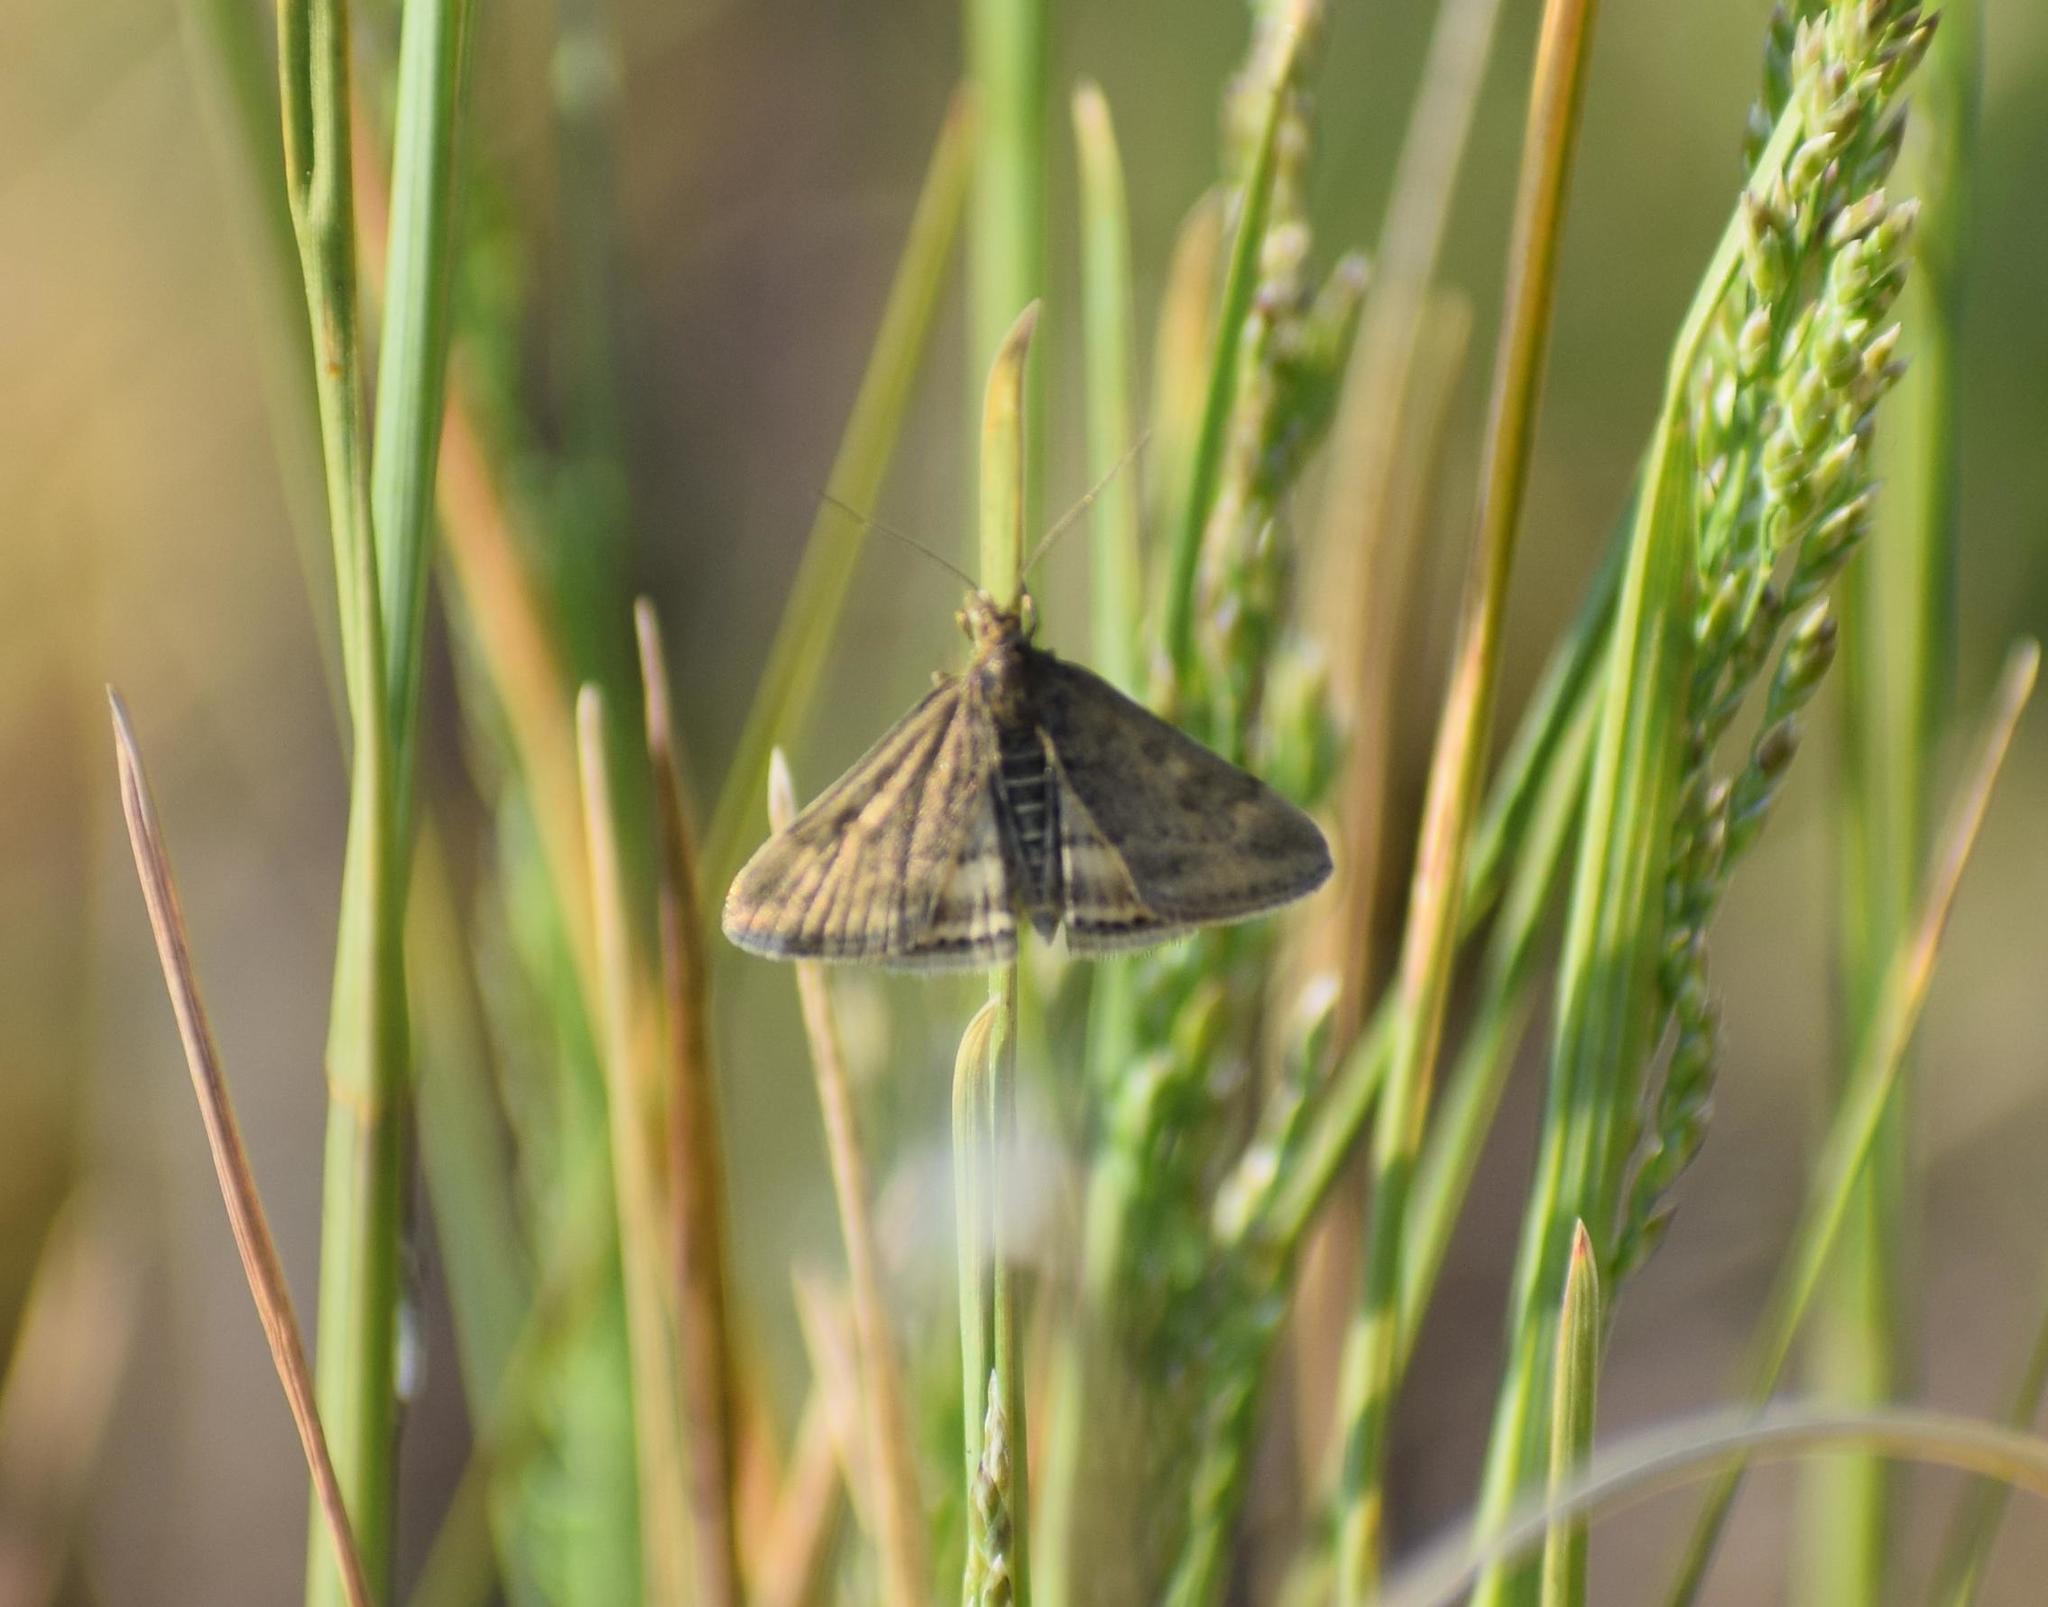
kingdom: Animalia
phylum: Arthropoda
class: Insecta
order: Lepidoptera
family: Crambidae
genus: Pyrausta
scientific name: Pyrausta despicata
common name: Straw-barred pearl
